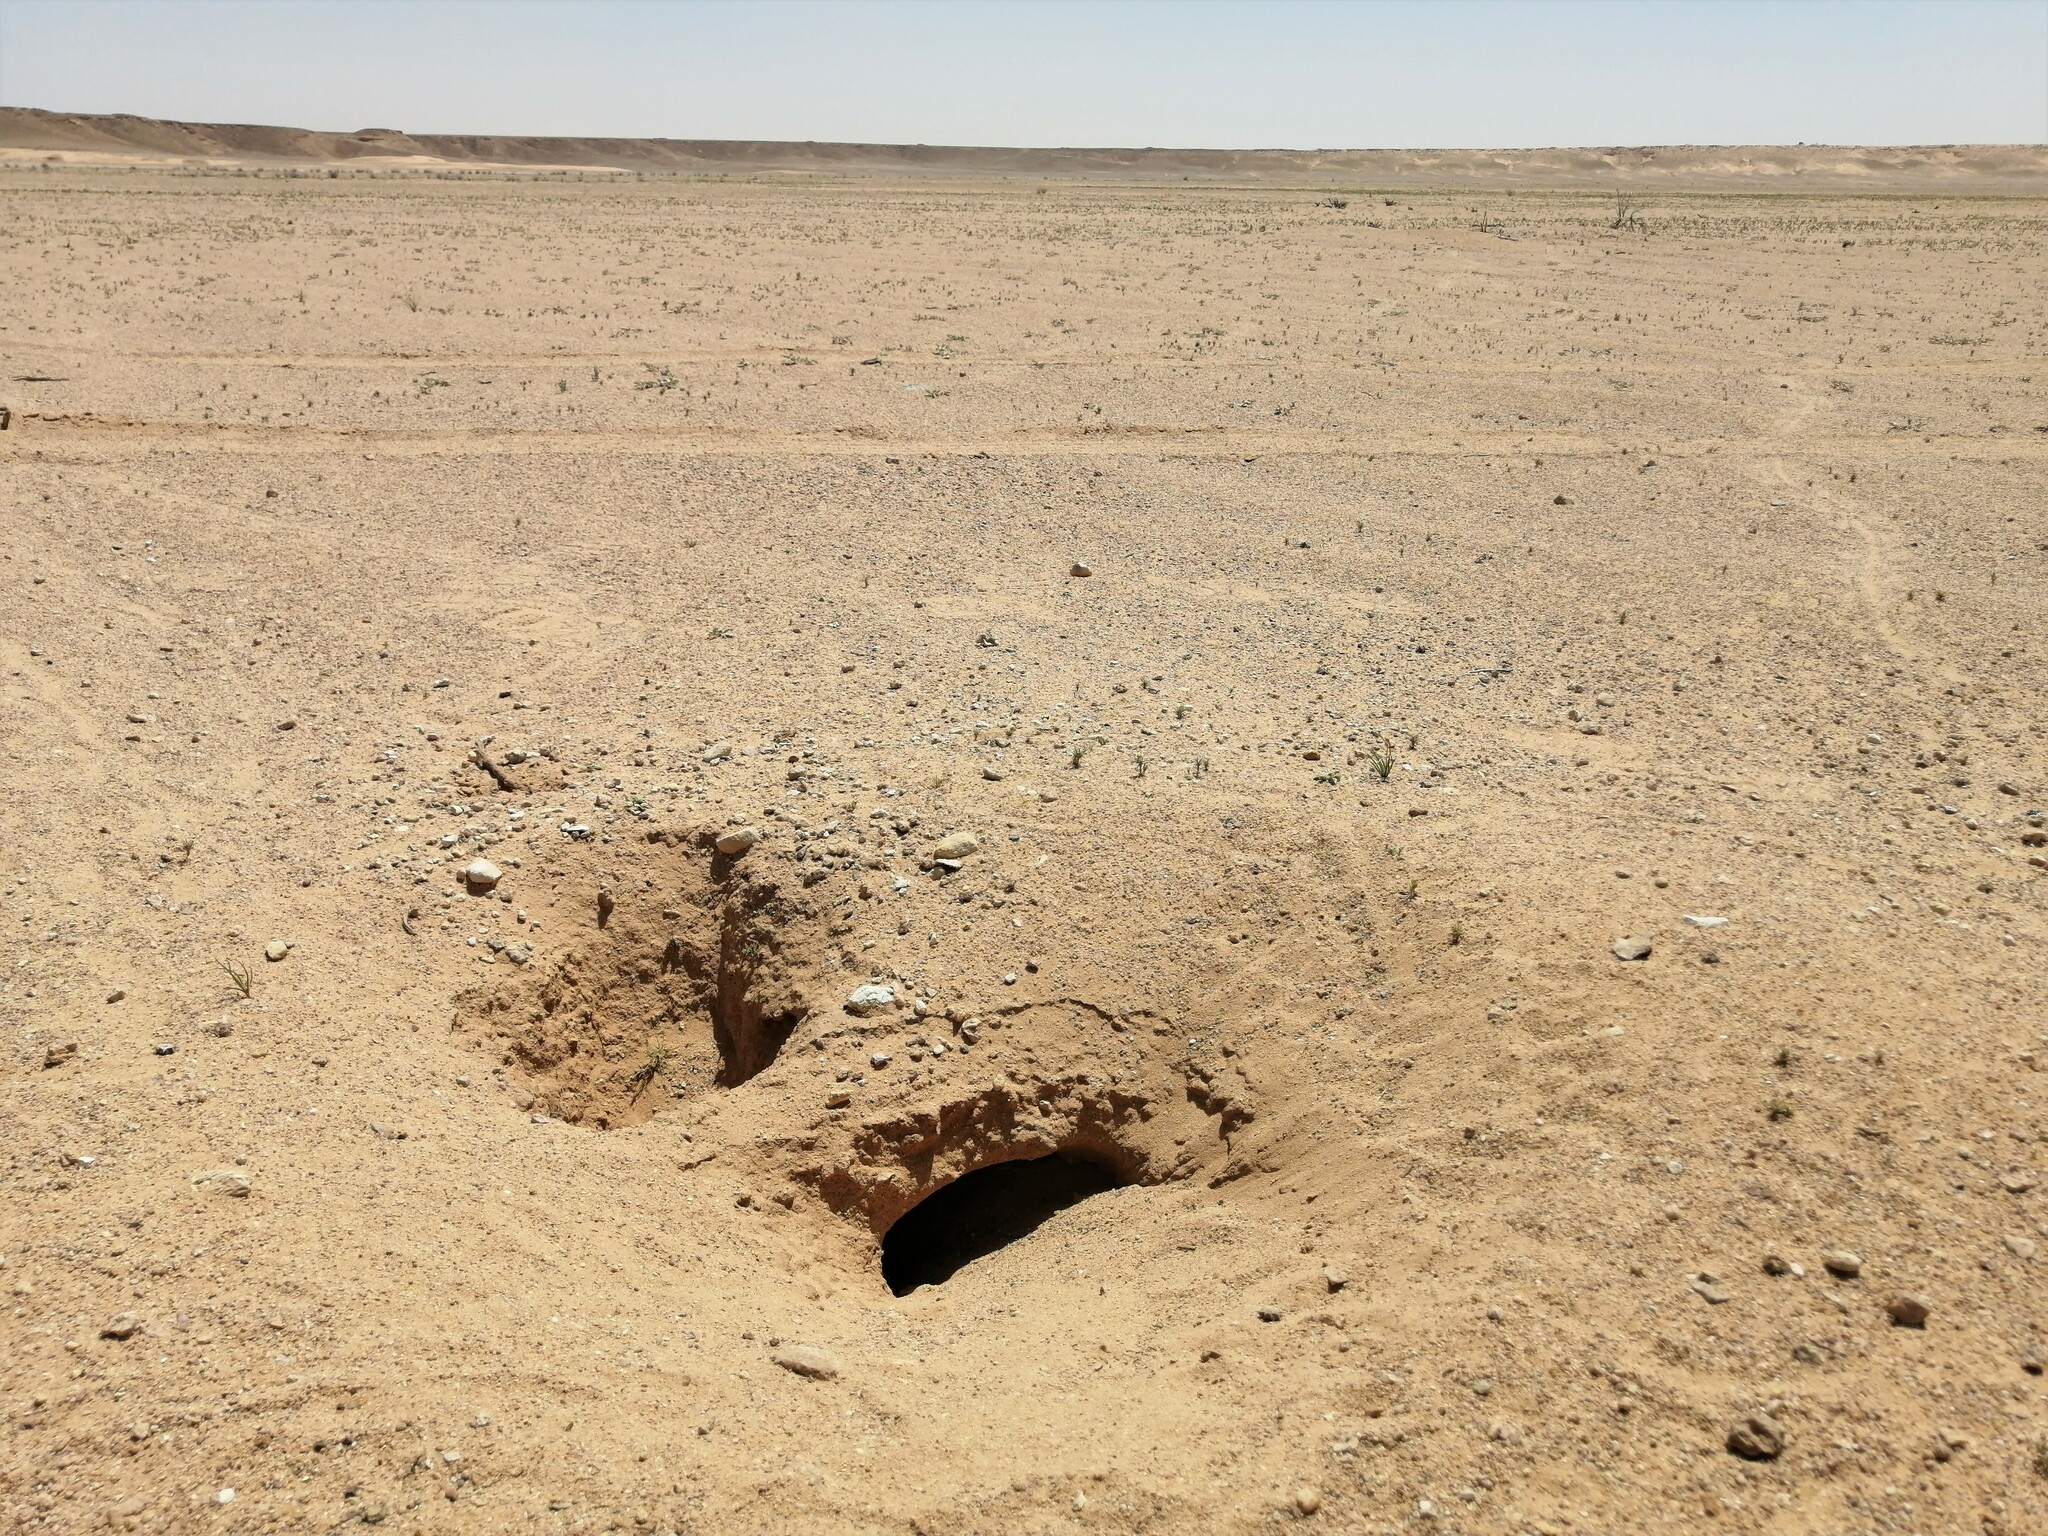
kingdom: Animalia
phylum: Chordata
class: Squamata
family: Agamidae
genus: Uromastyx
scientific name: Uromastyx aegyptia
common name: Egyptian mastigure
